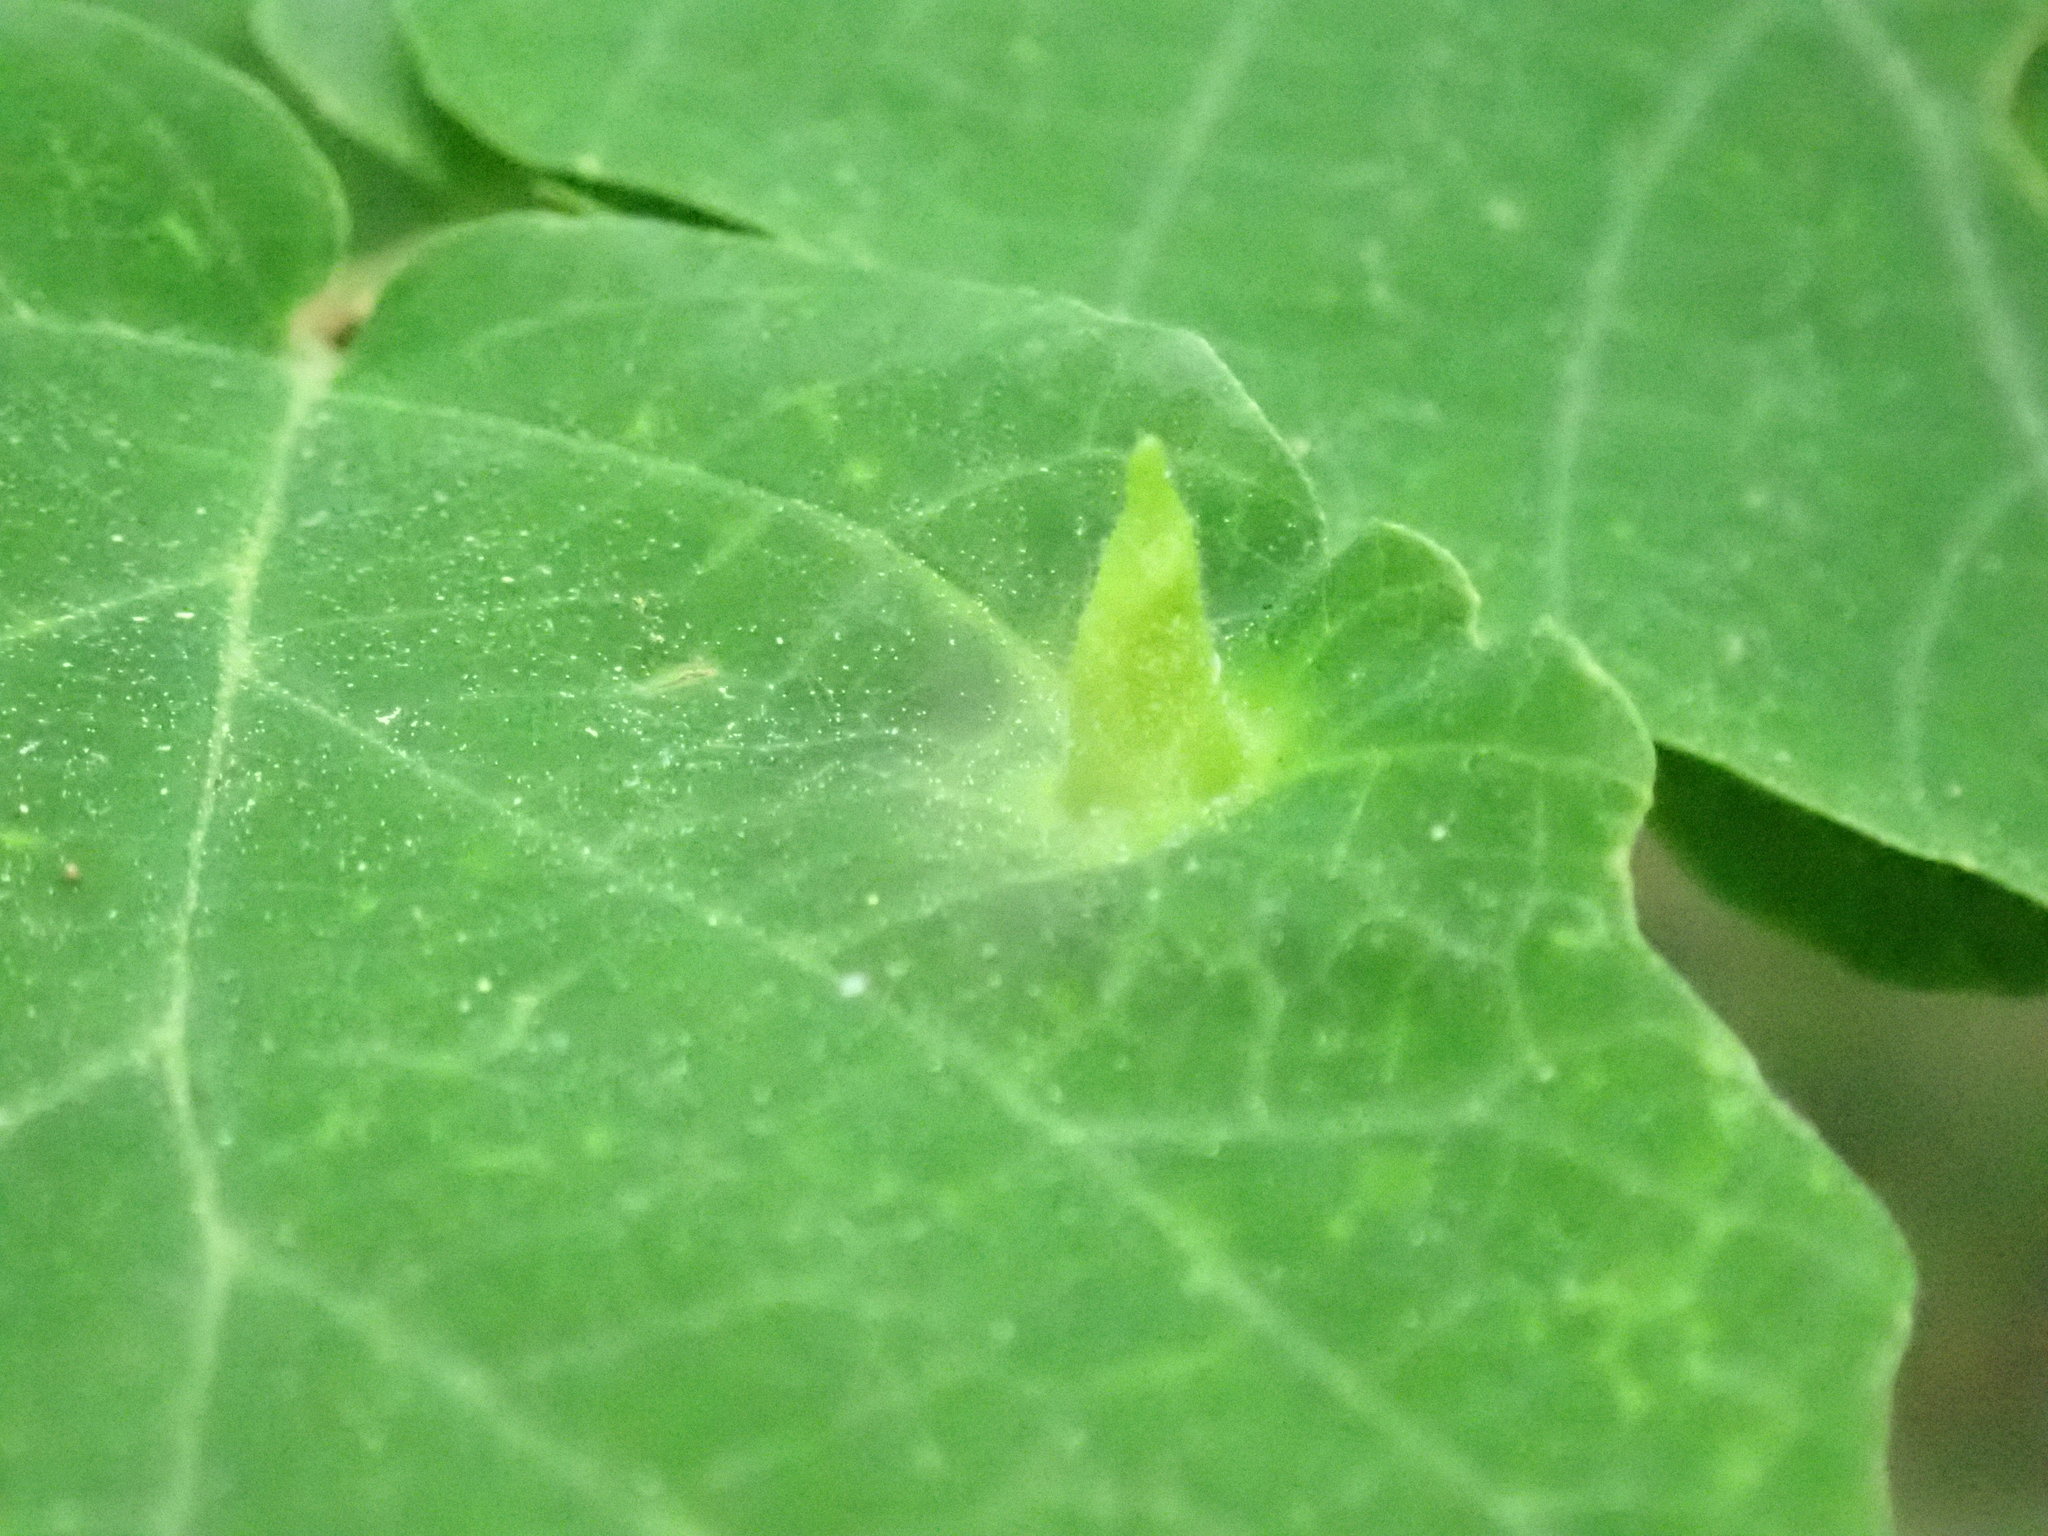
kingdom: Animalia
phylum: Arthropoda
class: Insecta
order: Hemiptera
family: Aphididae
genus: Hormaphis
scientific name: Hormaphis hamamelidis
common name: Witch-hazel cone gall aphid
